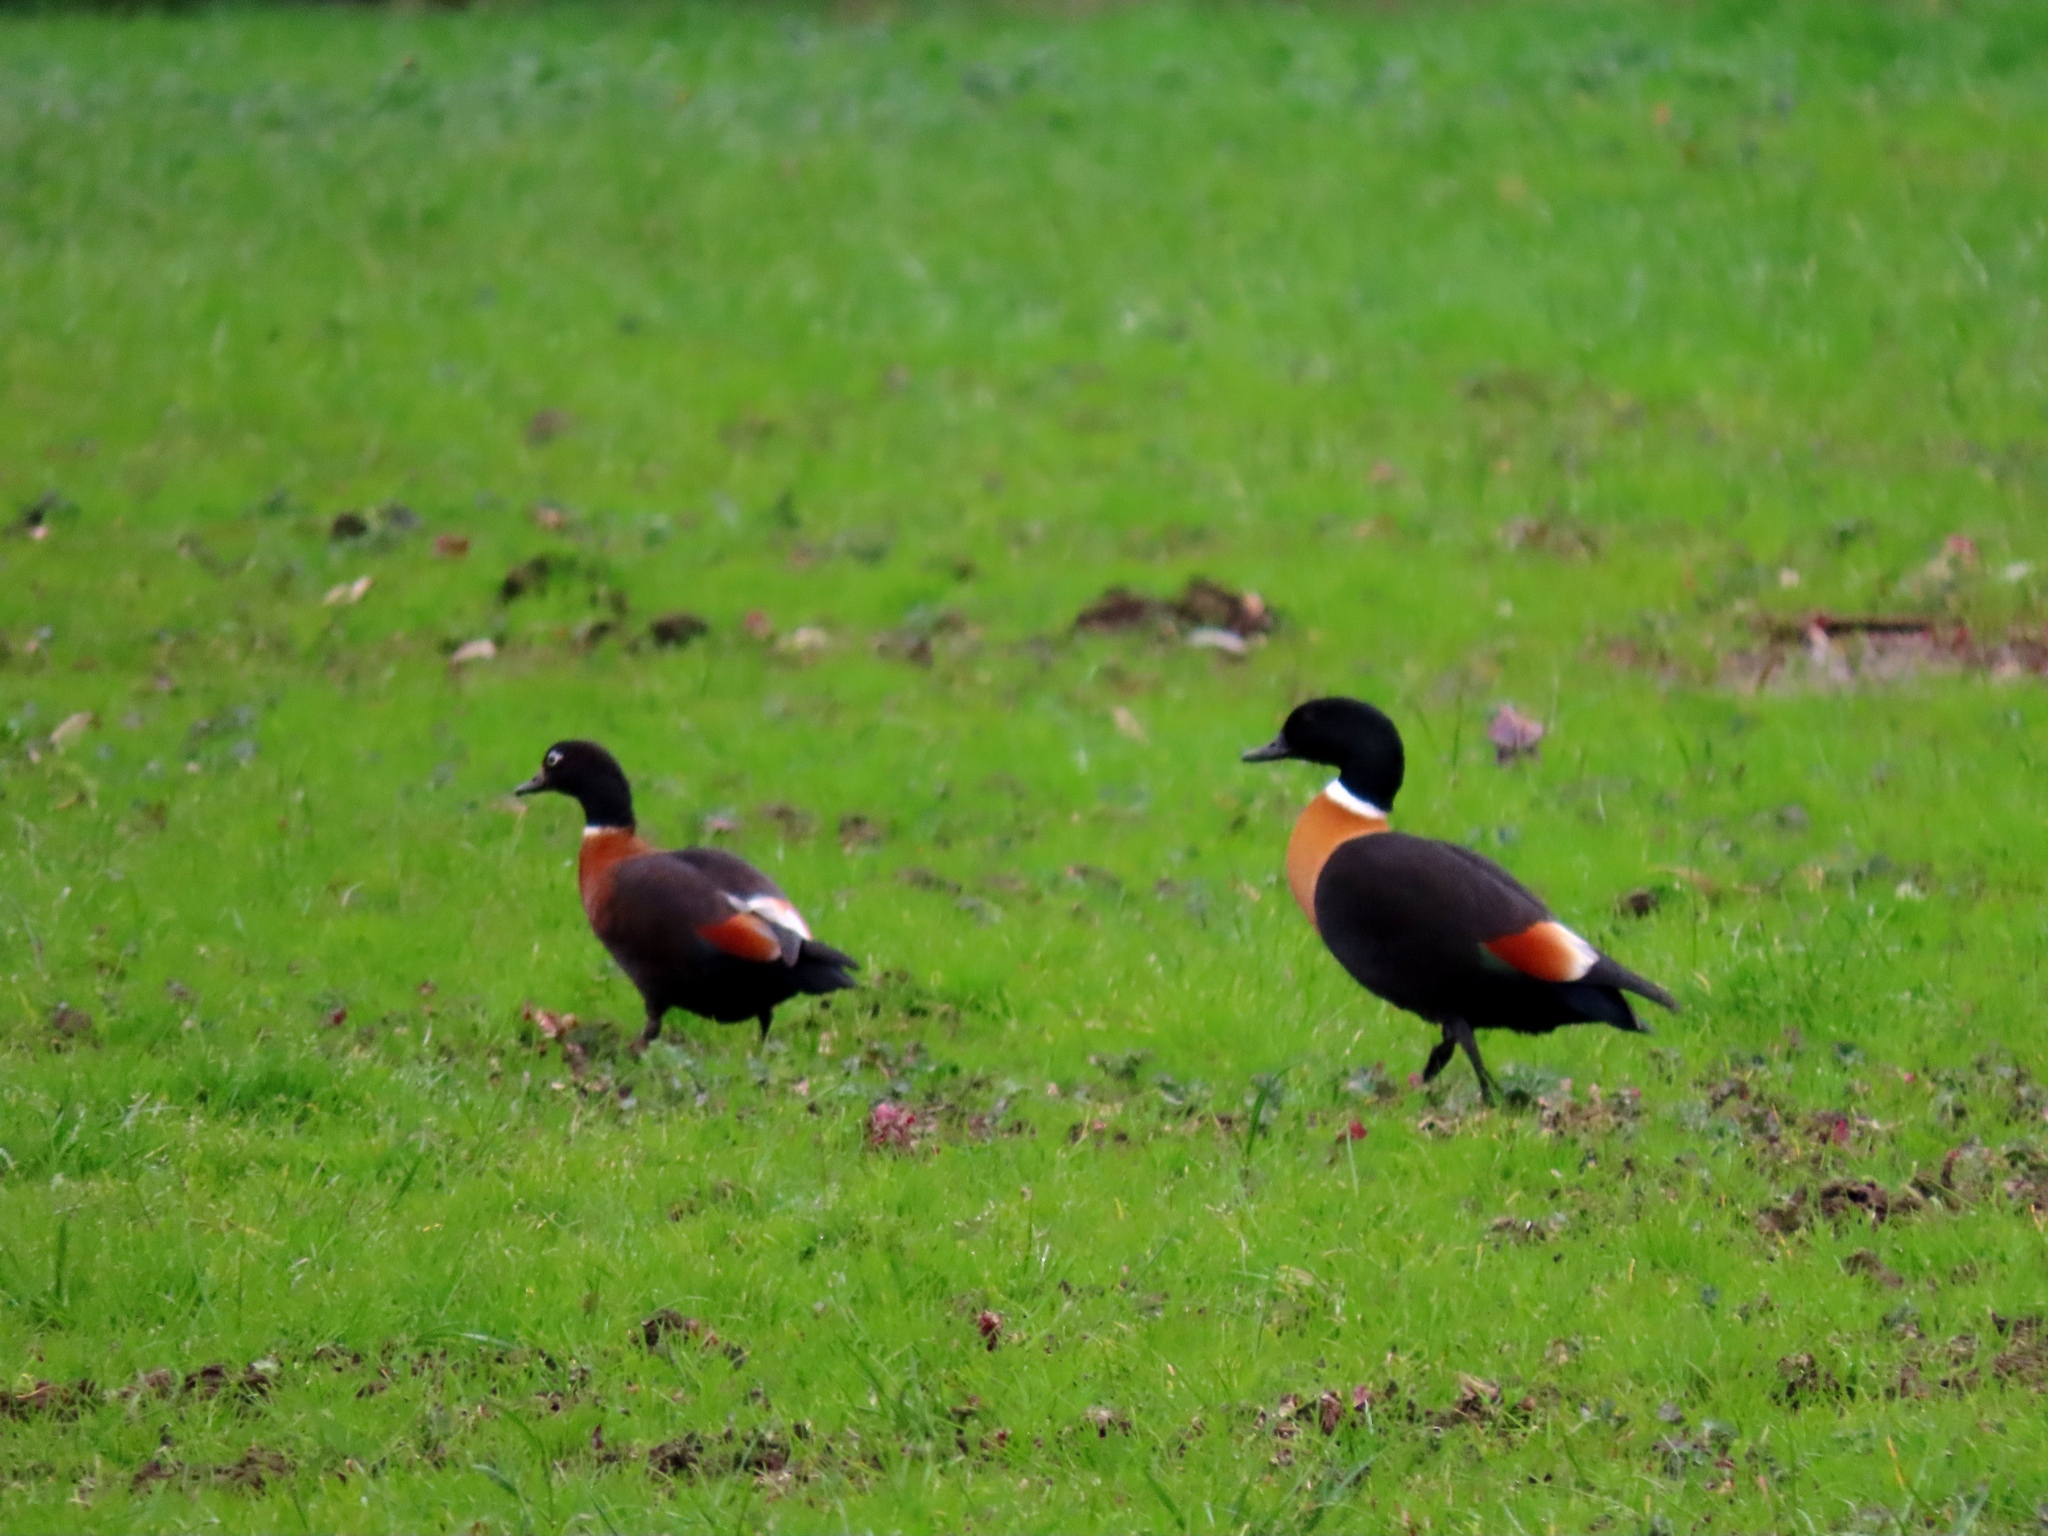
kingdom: Animalia
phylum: Chordata
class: Aves
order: Anseriformes
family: Anatidae
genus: Tadorna
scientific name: Tadorna tadornoides
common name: Australian shelduck
